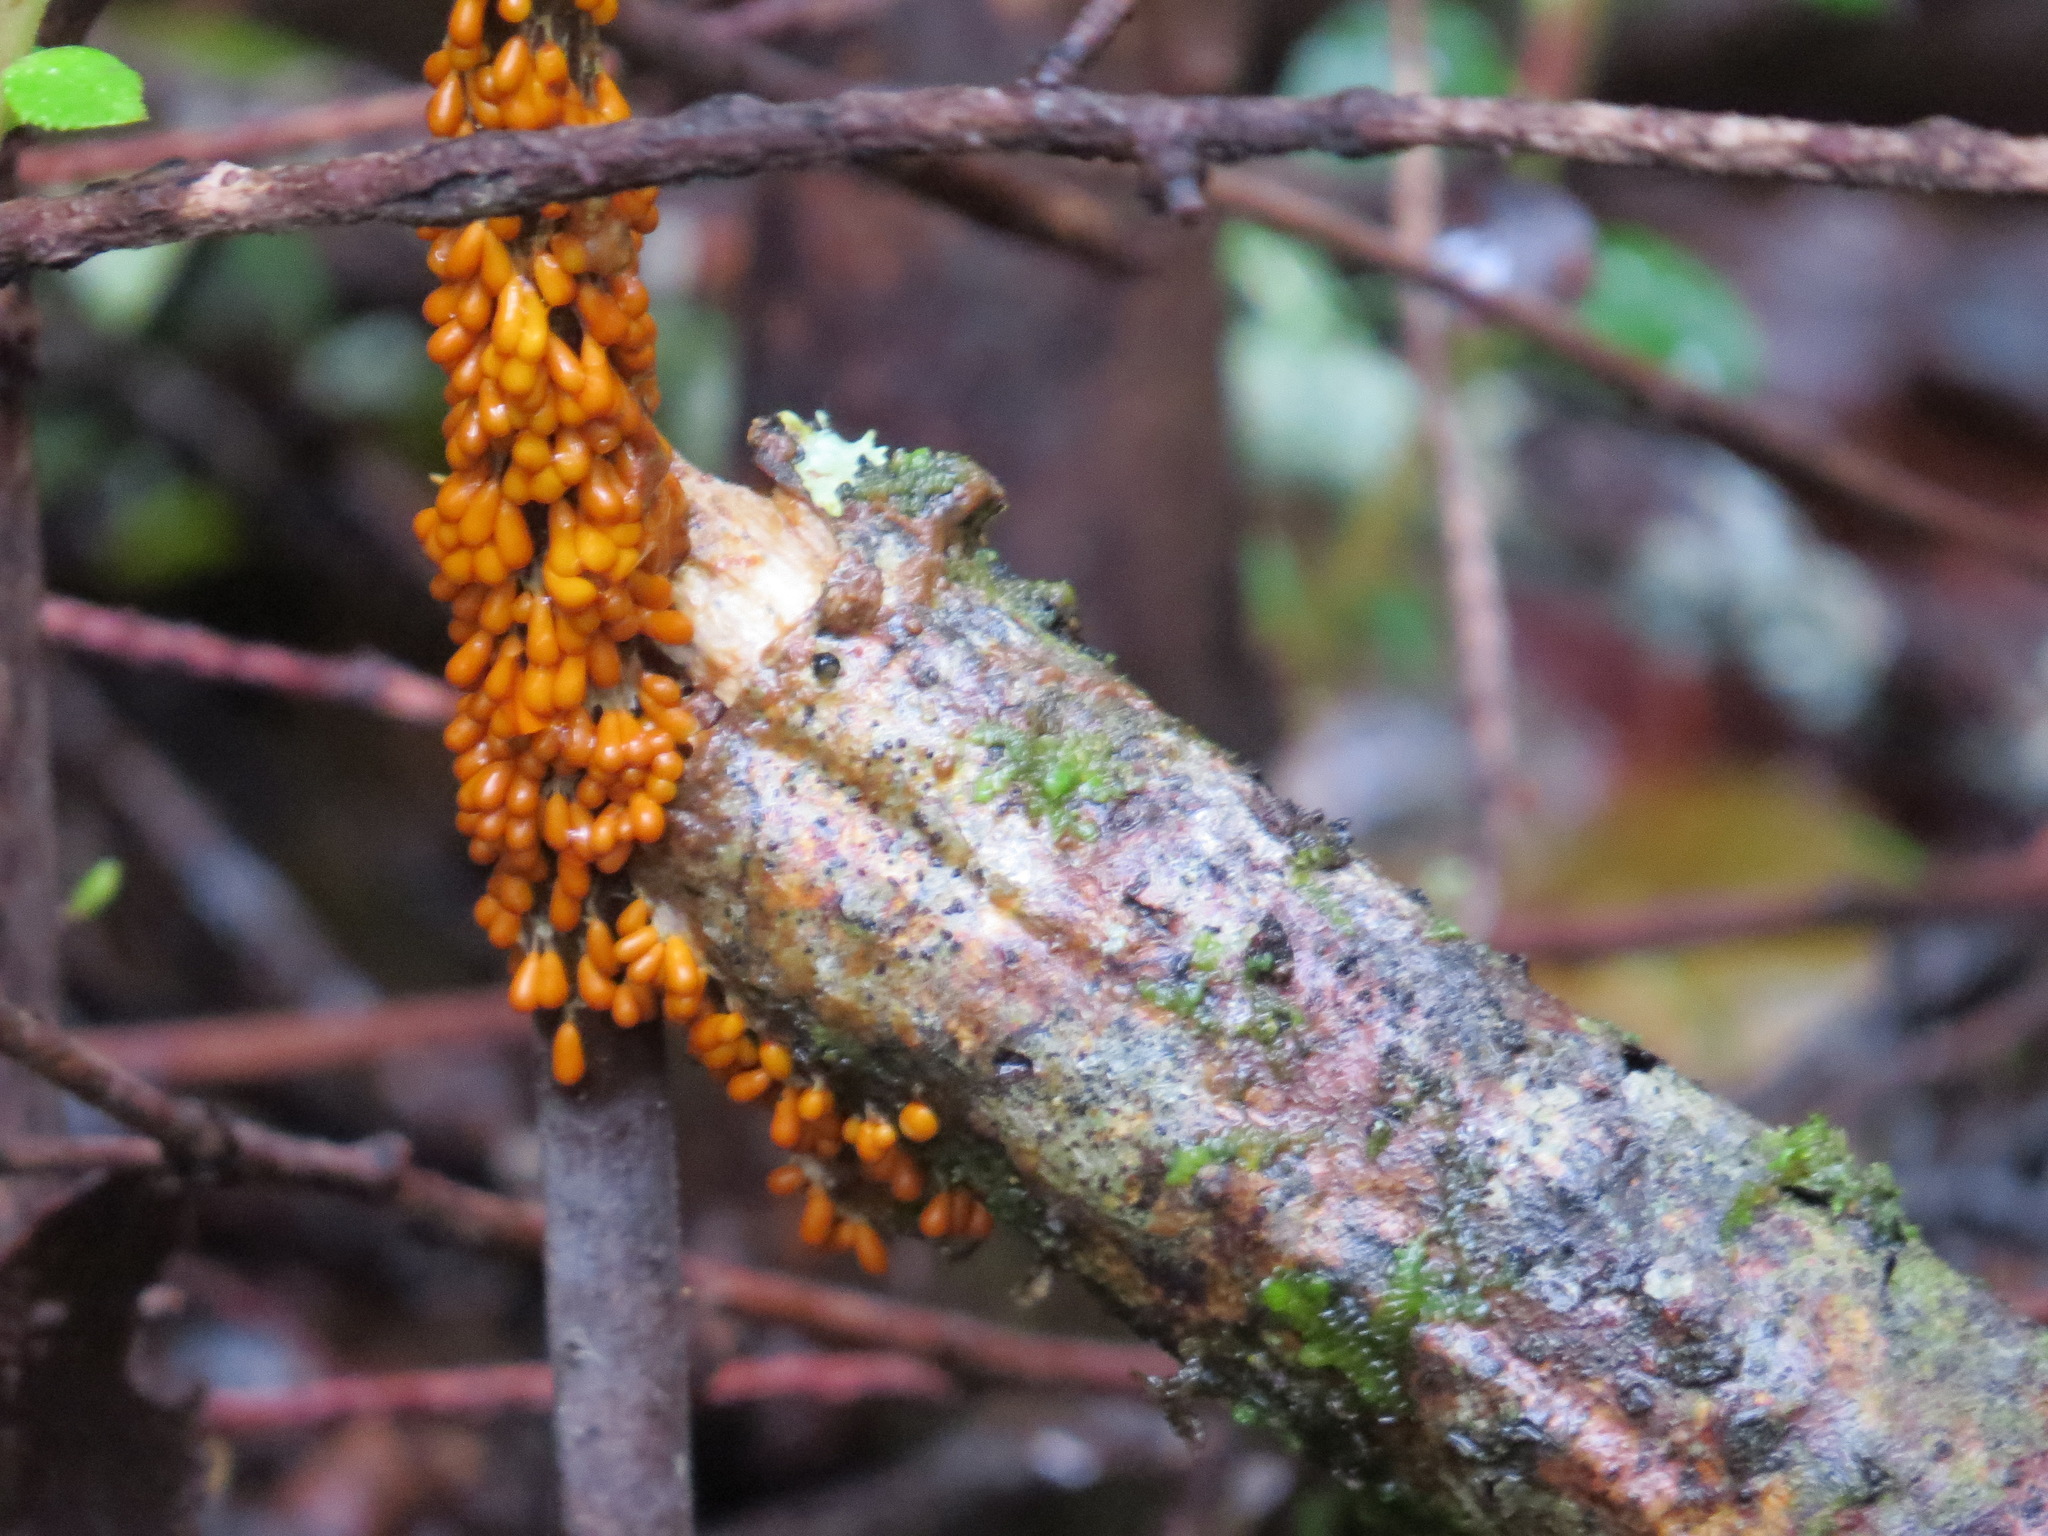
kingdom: Protozoa
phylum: Mycetozoa
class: Myxomycetes
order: Physarales
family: Physaraceae
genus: Leocarpus
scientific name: Leocarpus fragilis
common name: Insect-egg slime
